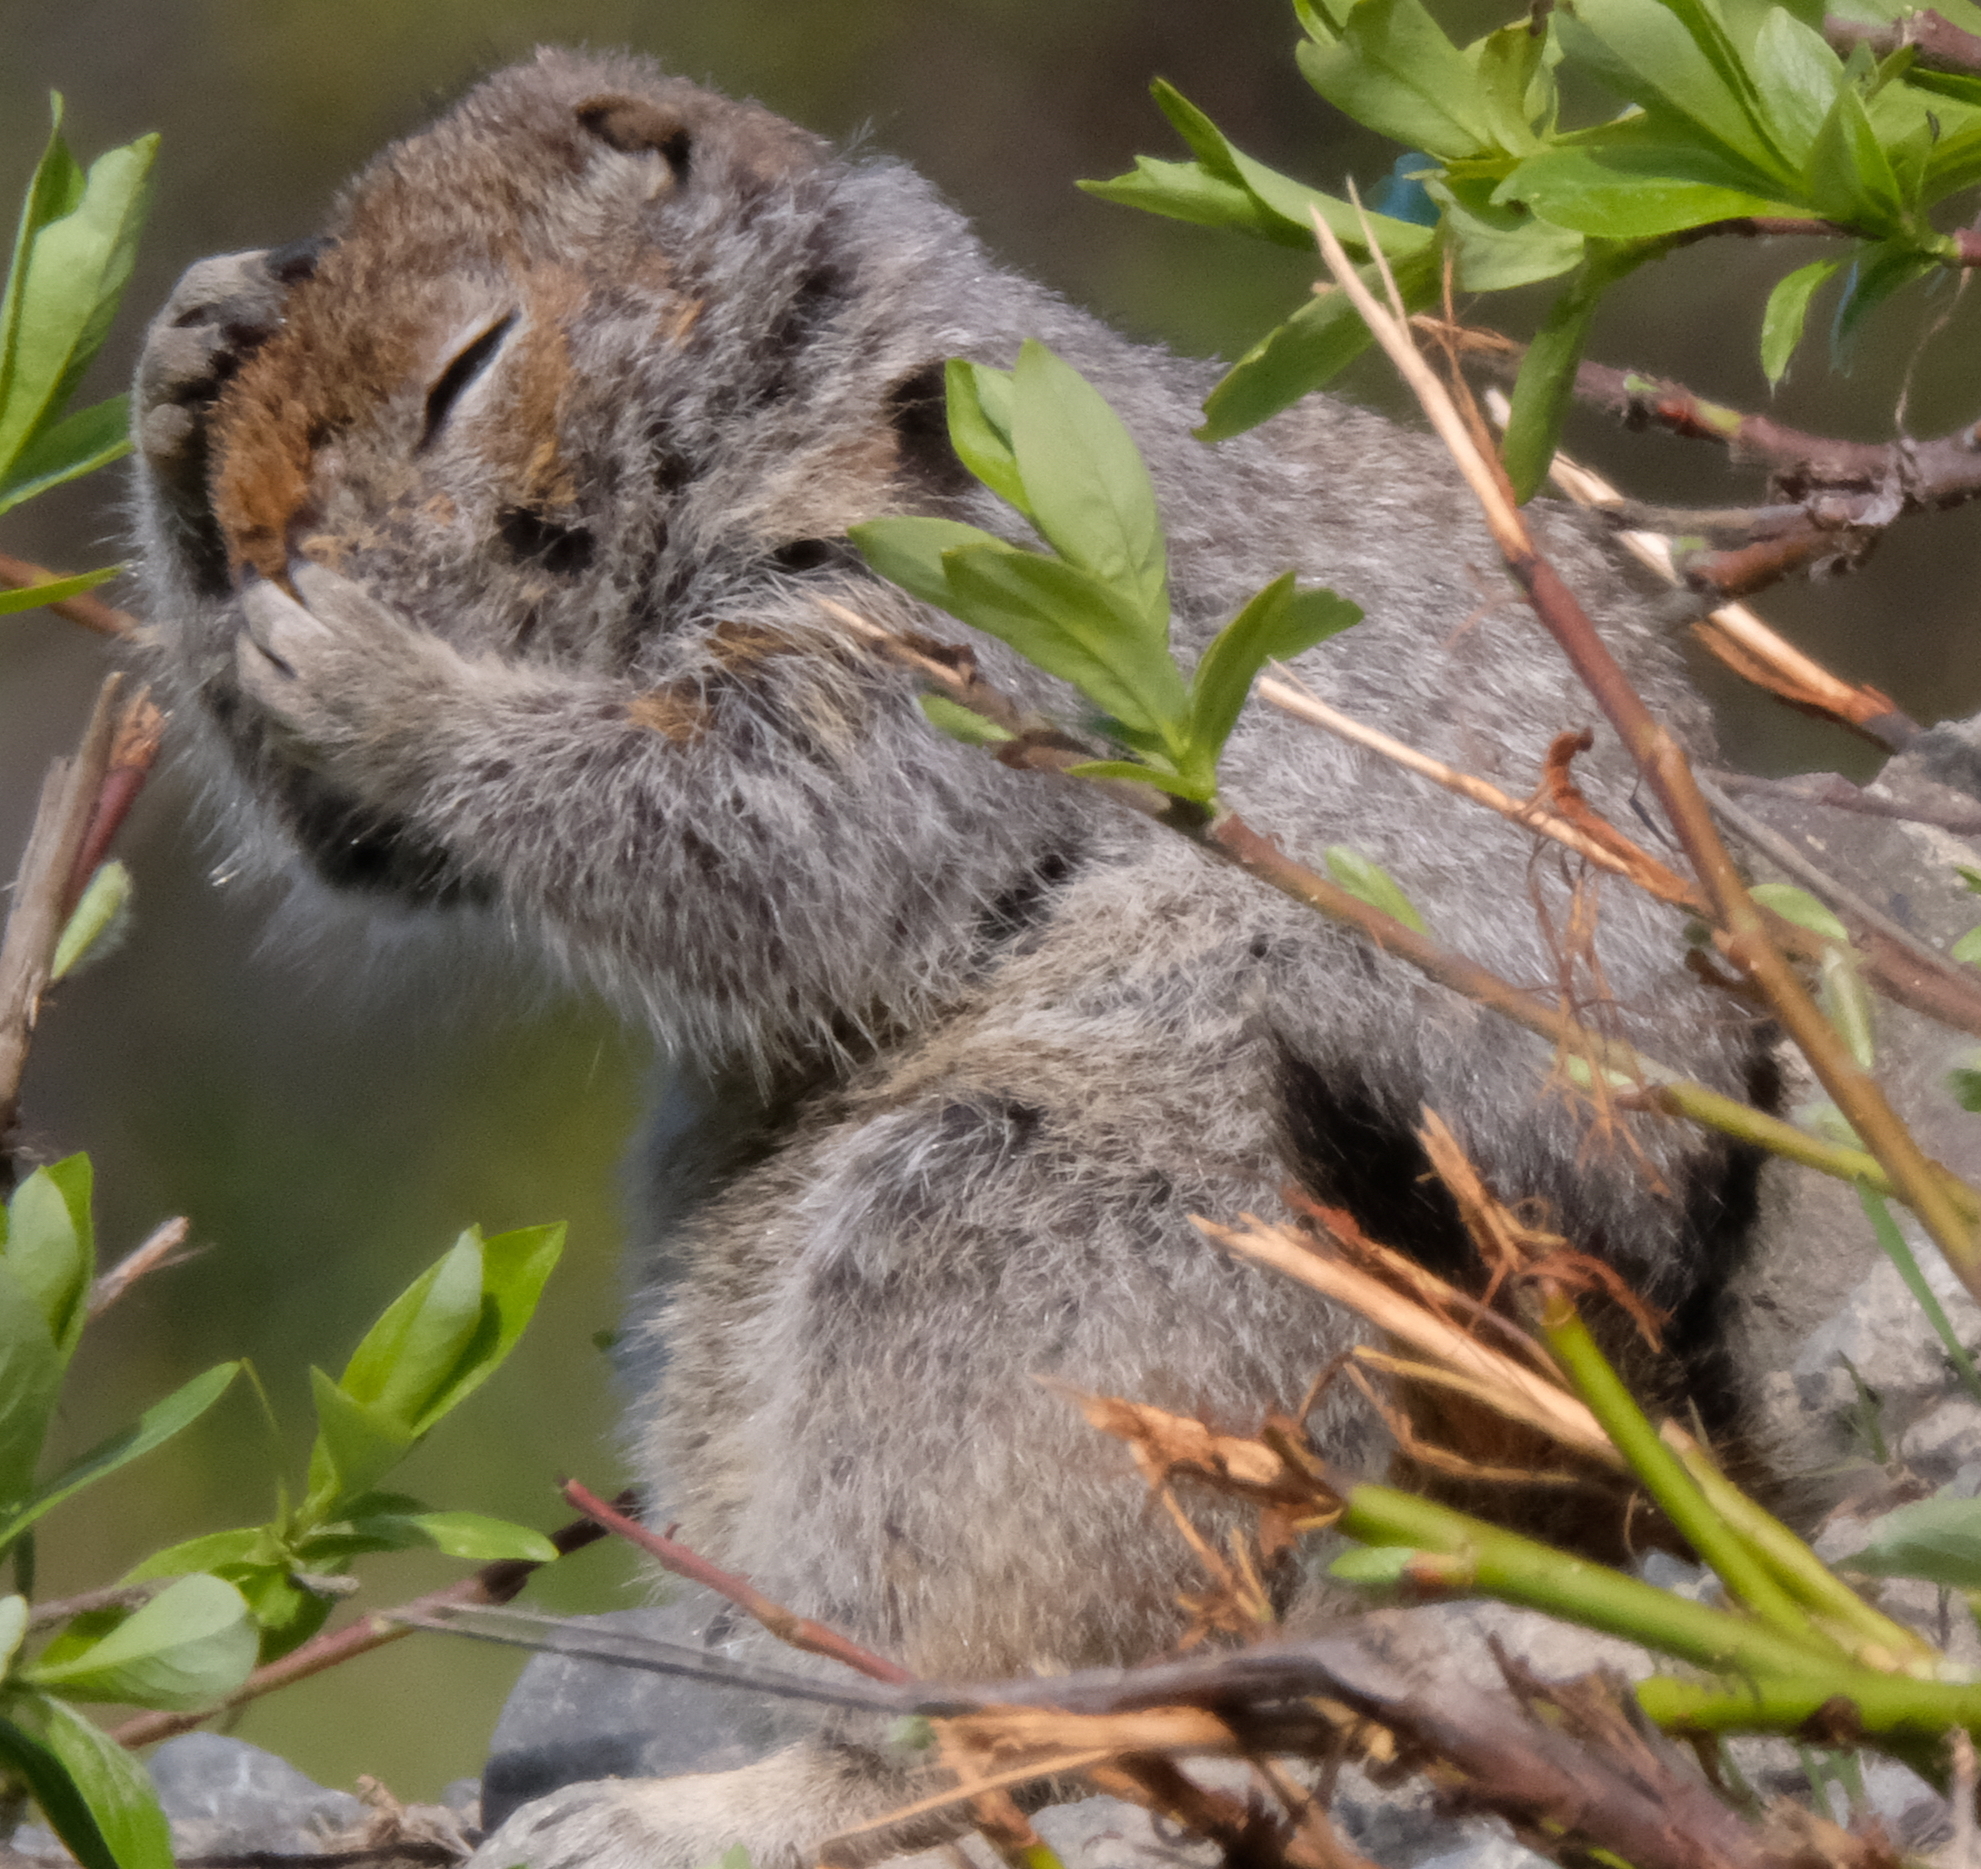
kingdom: Animalia
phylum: Chordata
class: Mammalia
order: Rodentia
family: Sciuridae
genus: Urocitellus
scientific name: Urocitellus parryii
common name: Arctic ground squirrel
